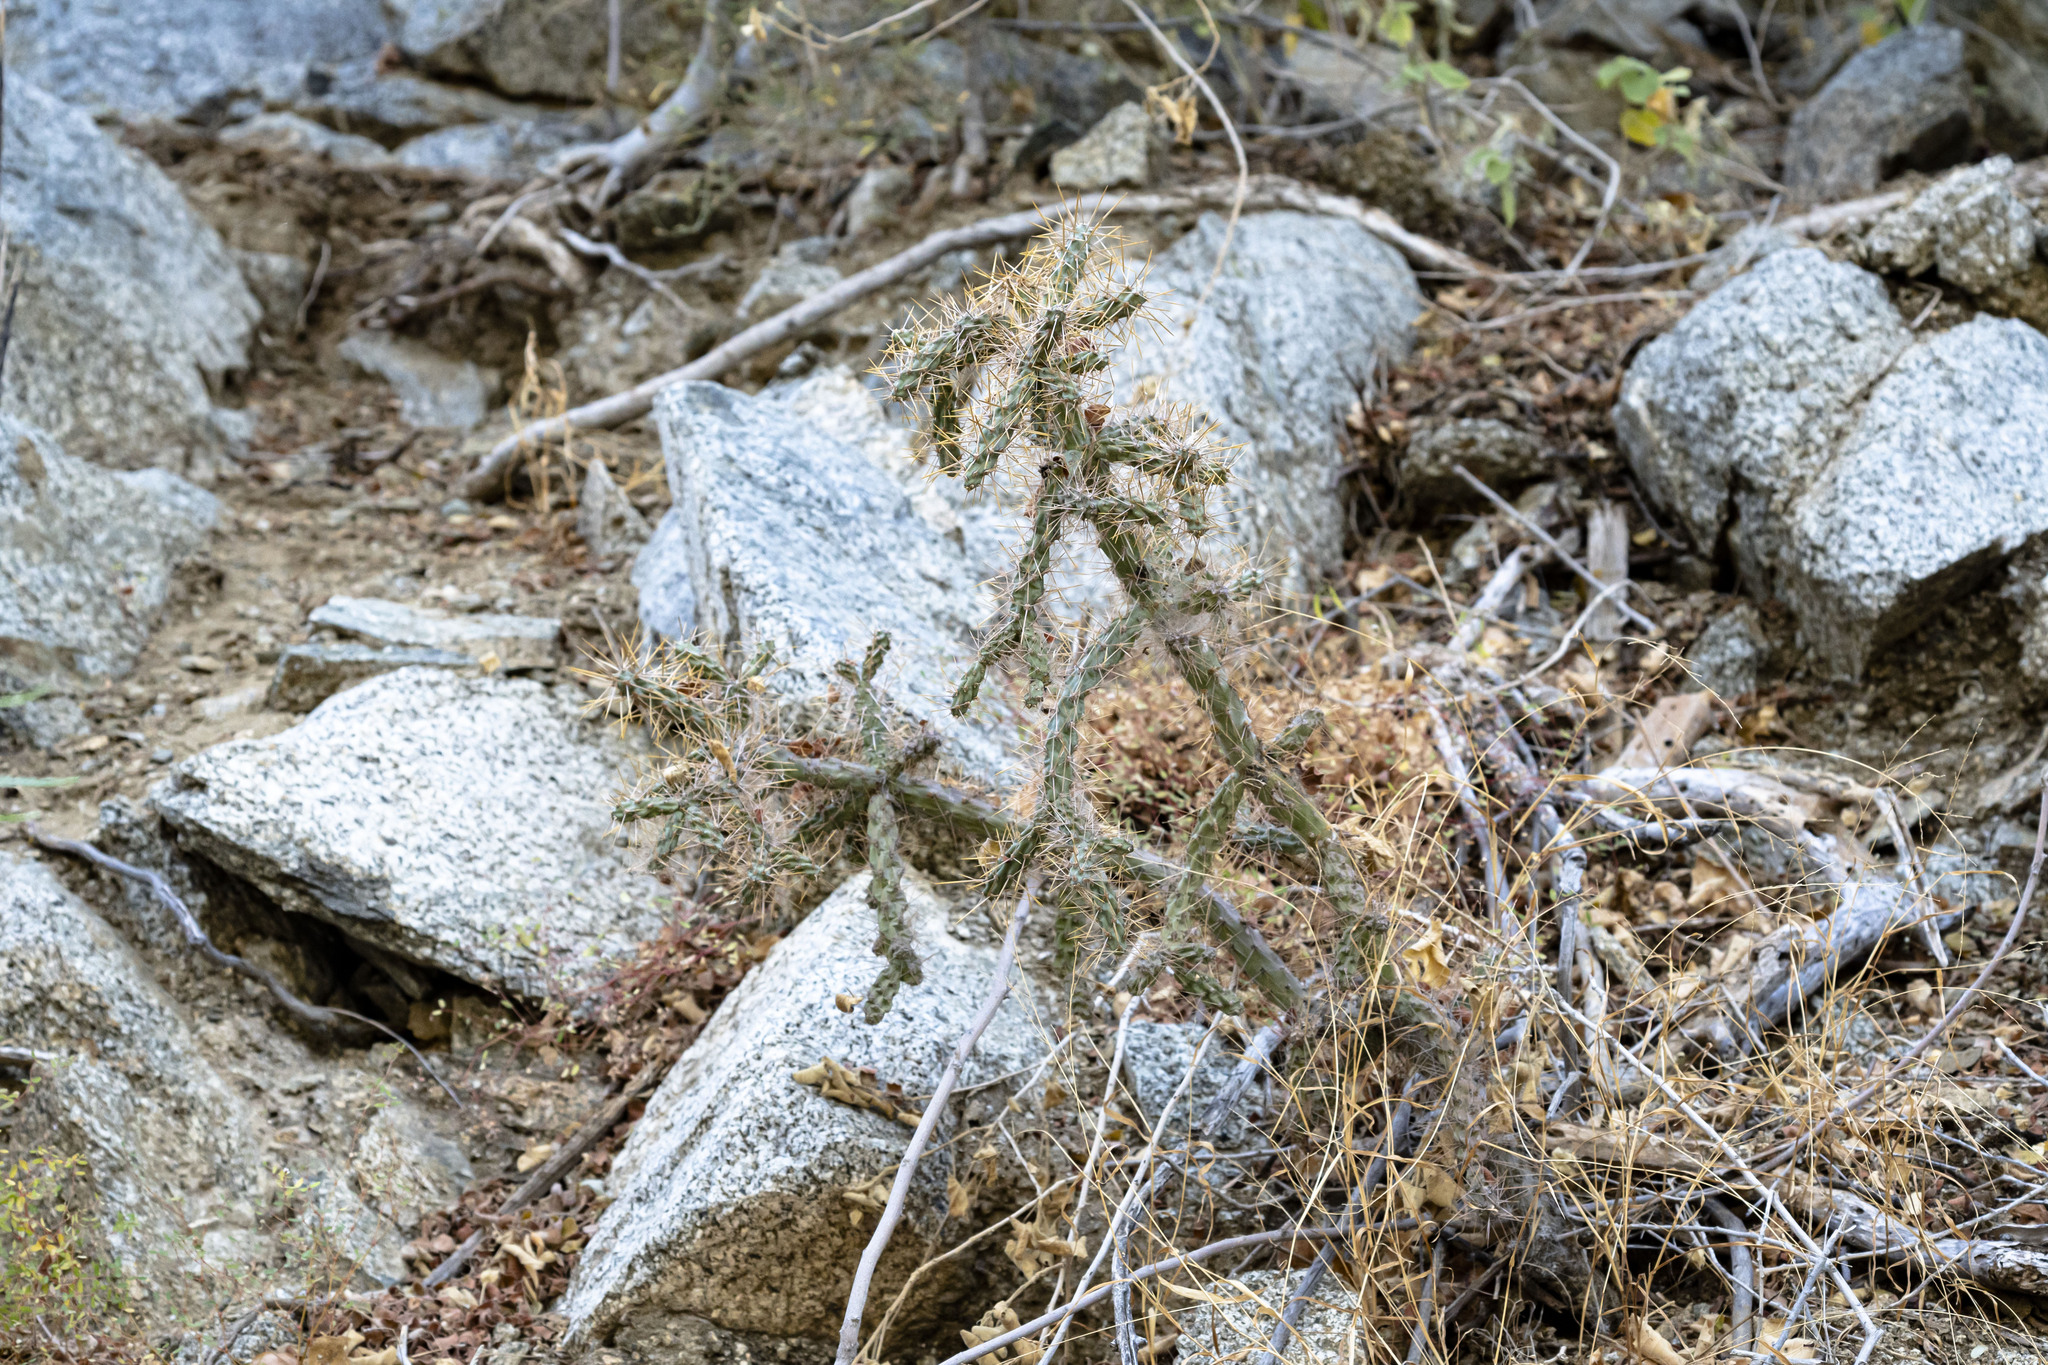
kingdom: Plantae
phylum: Tracheophyta
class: Magnoliopsida
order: Caryophyllales
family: Cactaceae
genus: Cylindropuntia
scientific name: Cylindropuntia waltoniorum
